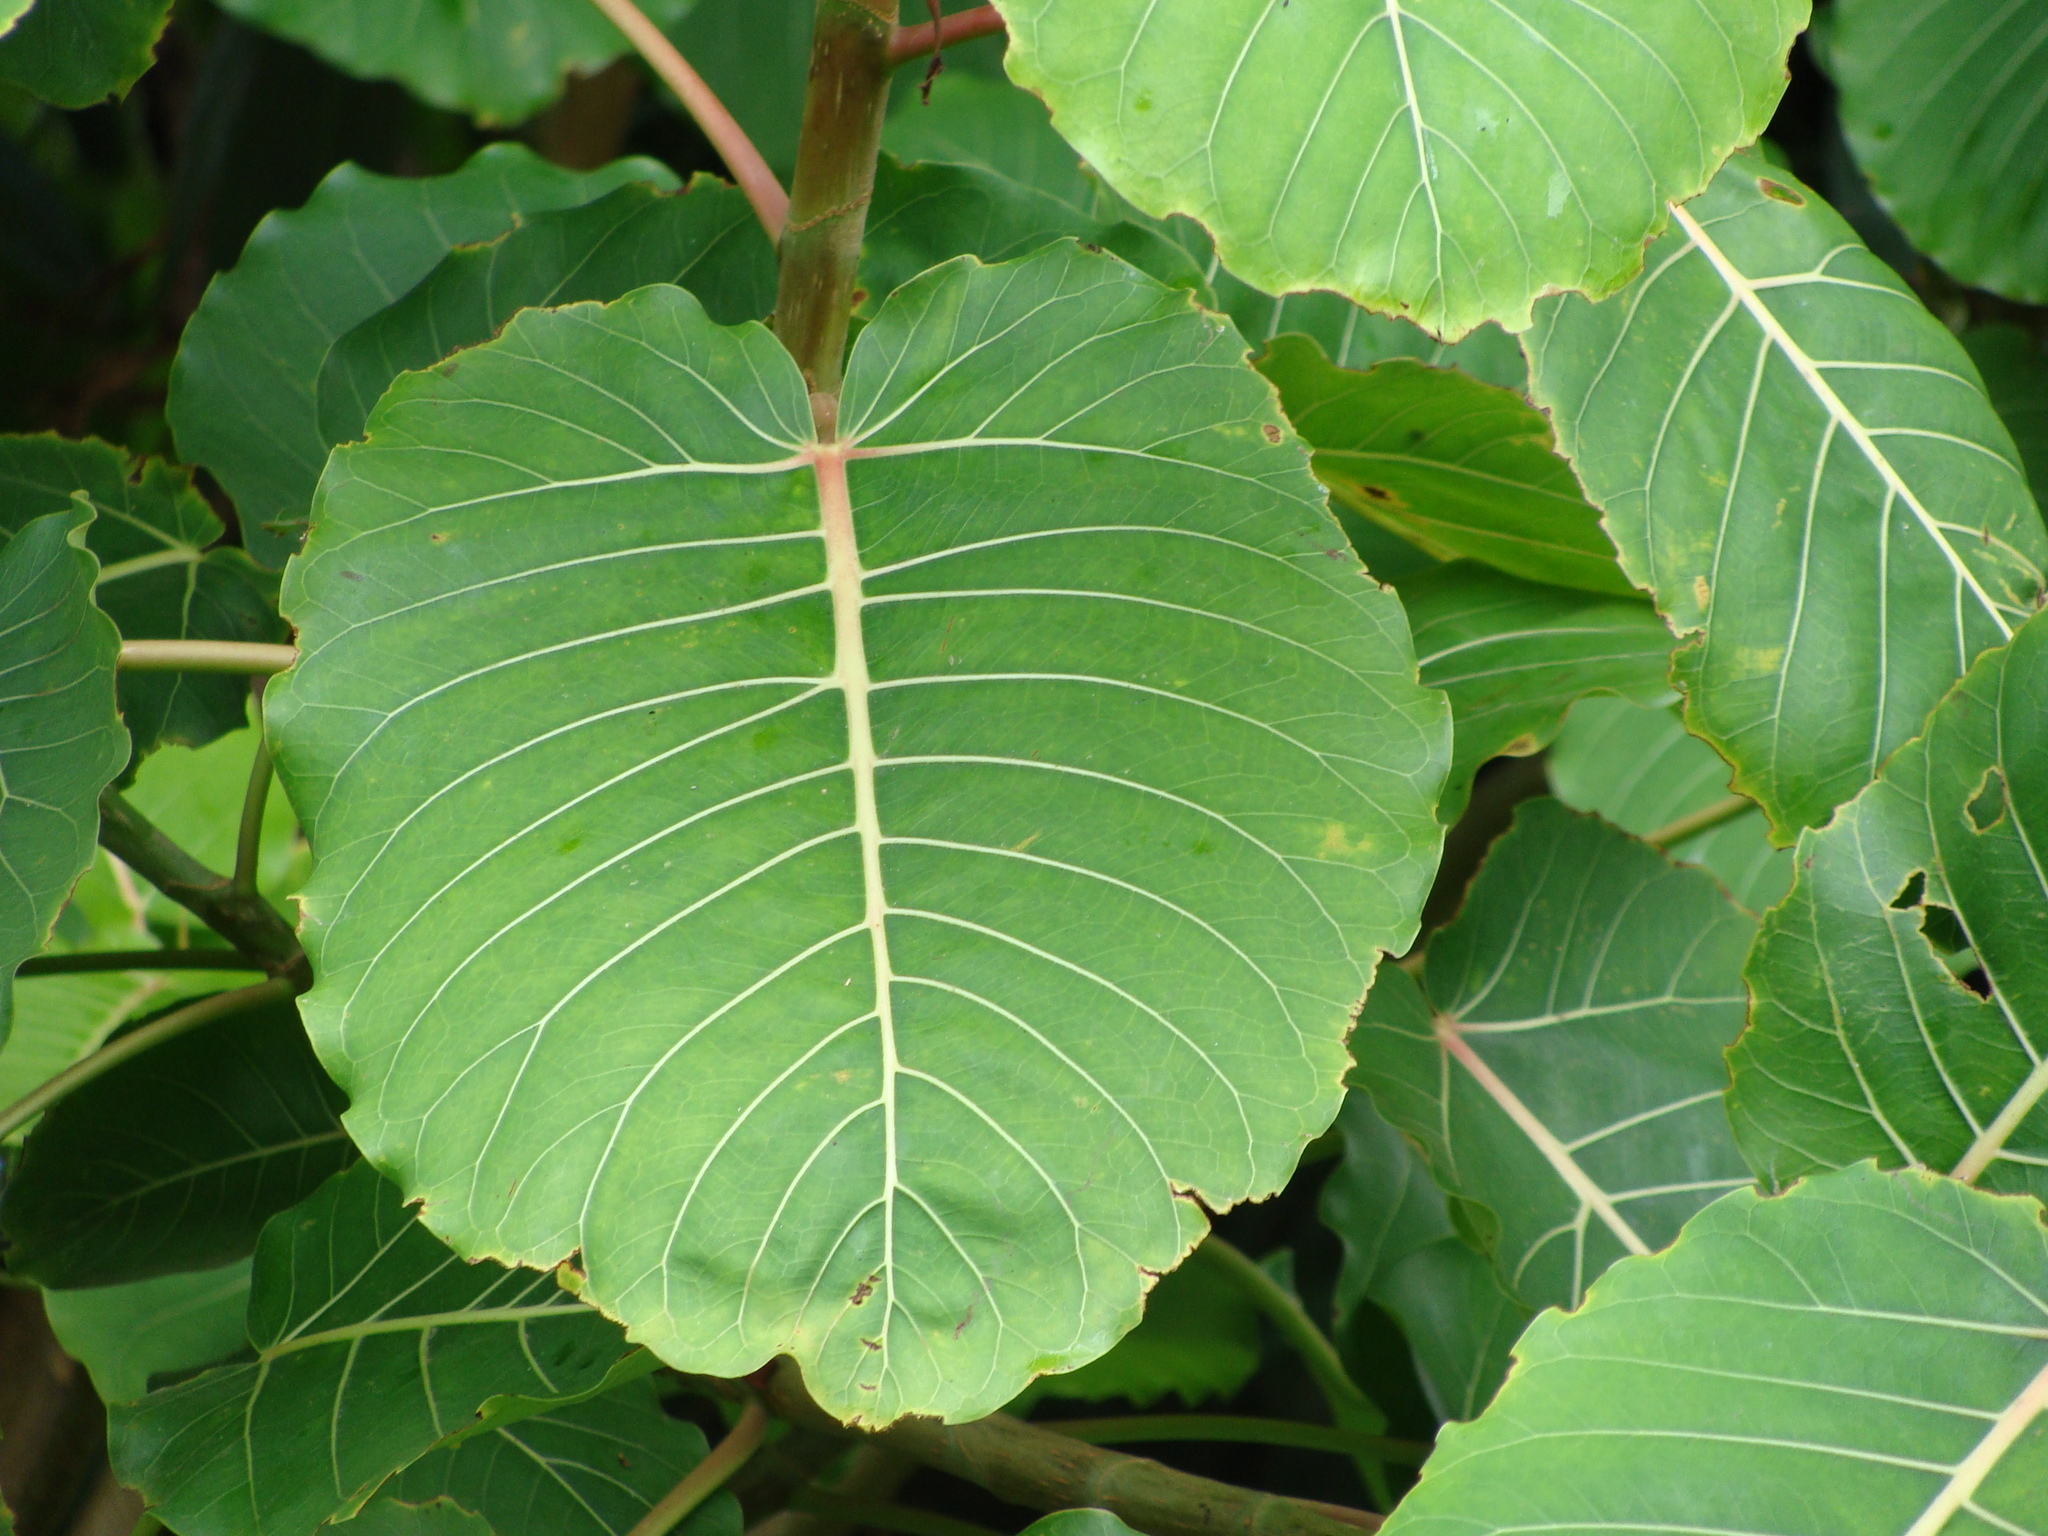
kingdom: Plantae
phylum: Tracheophyta
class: Magnoliopsida
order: Rosales
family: Moraceae
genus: Ficus
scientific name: Ficus petiolaris
